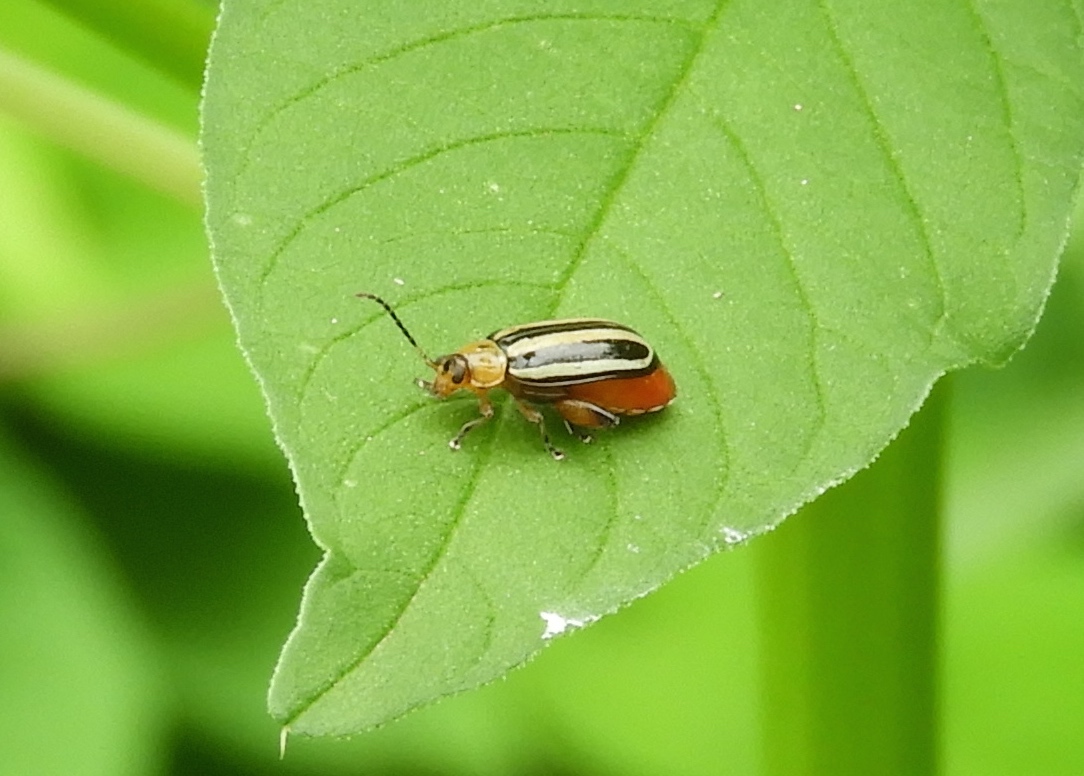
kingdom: Animalia
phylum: Arthropoda
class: Insecta
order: Coleoptera
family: Chrysomelidae
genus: Disonycha
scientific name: Disonycha glabrata
